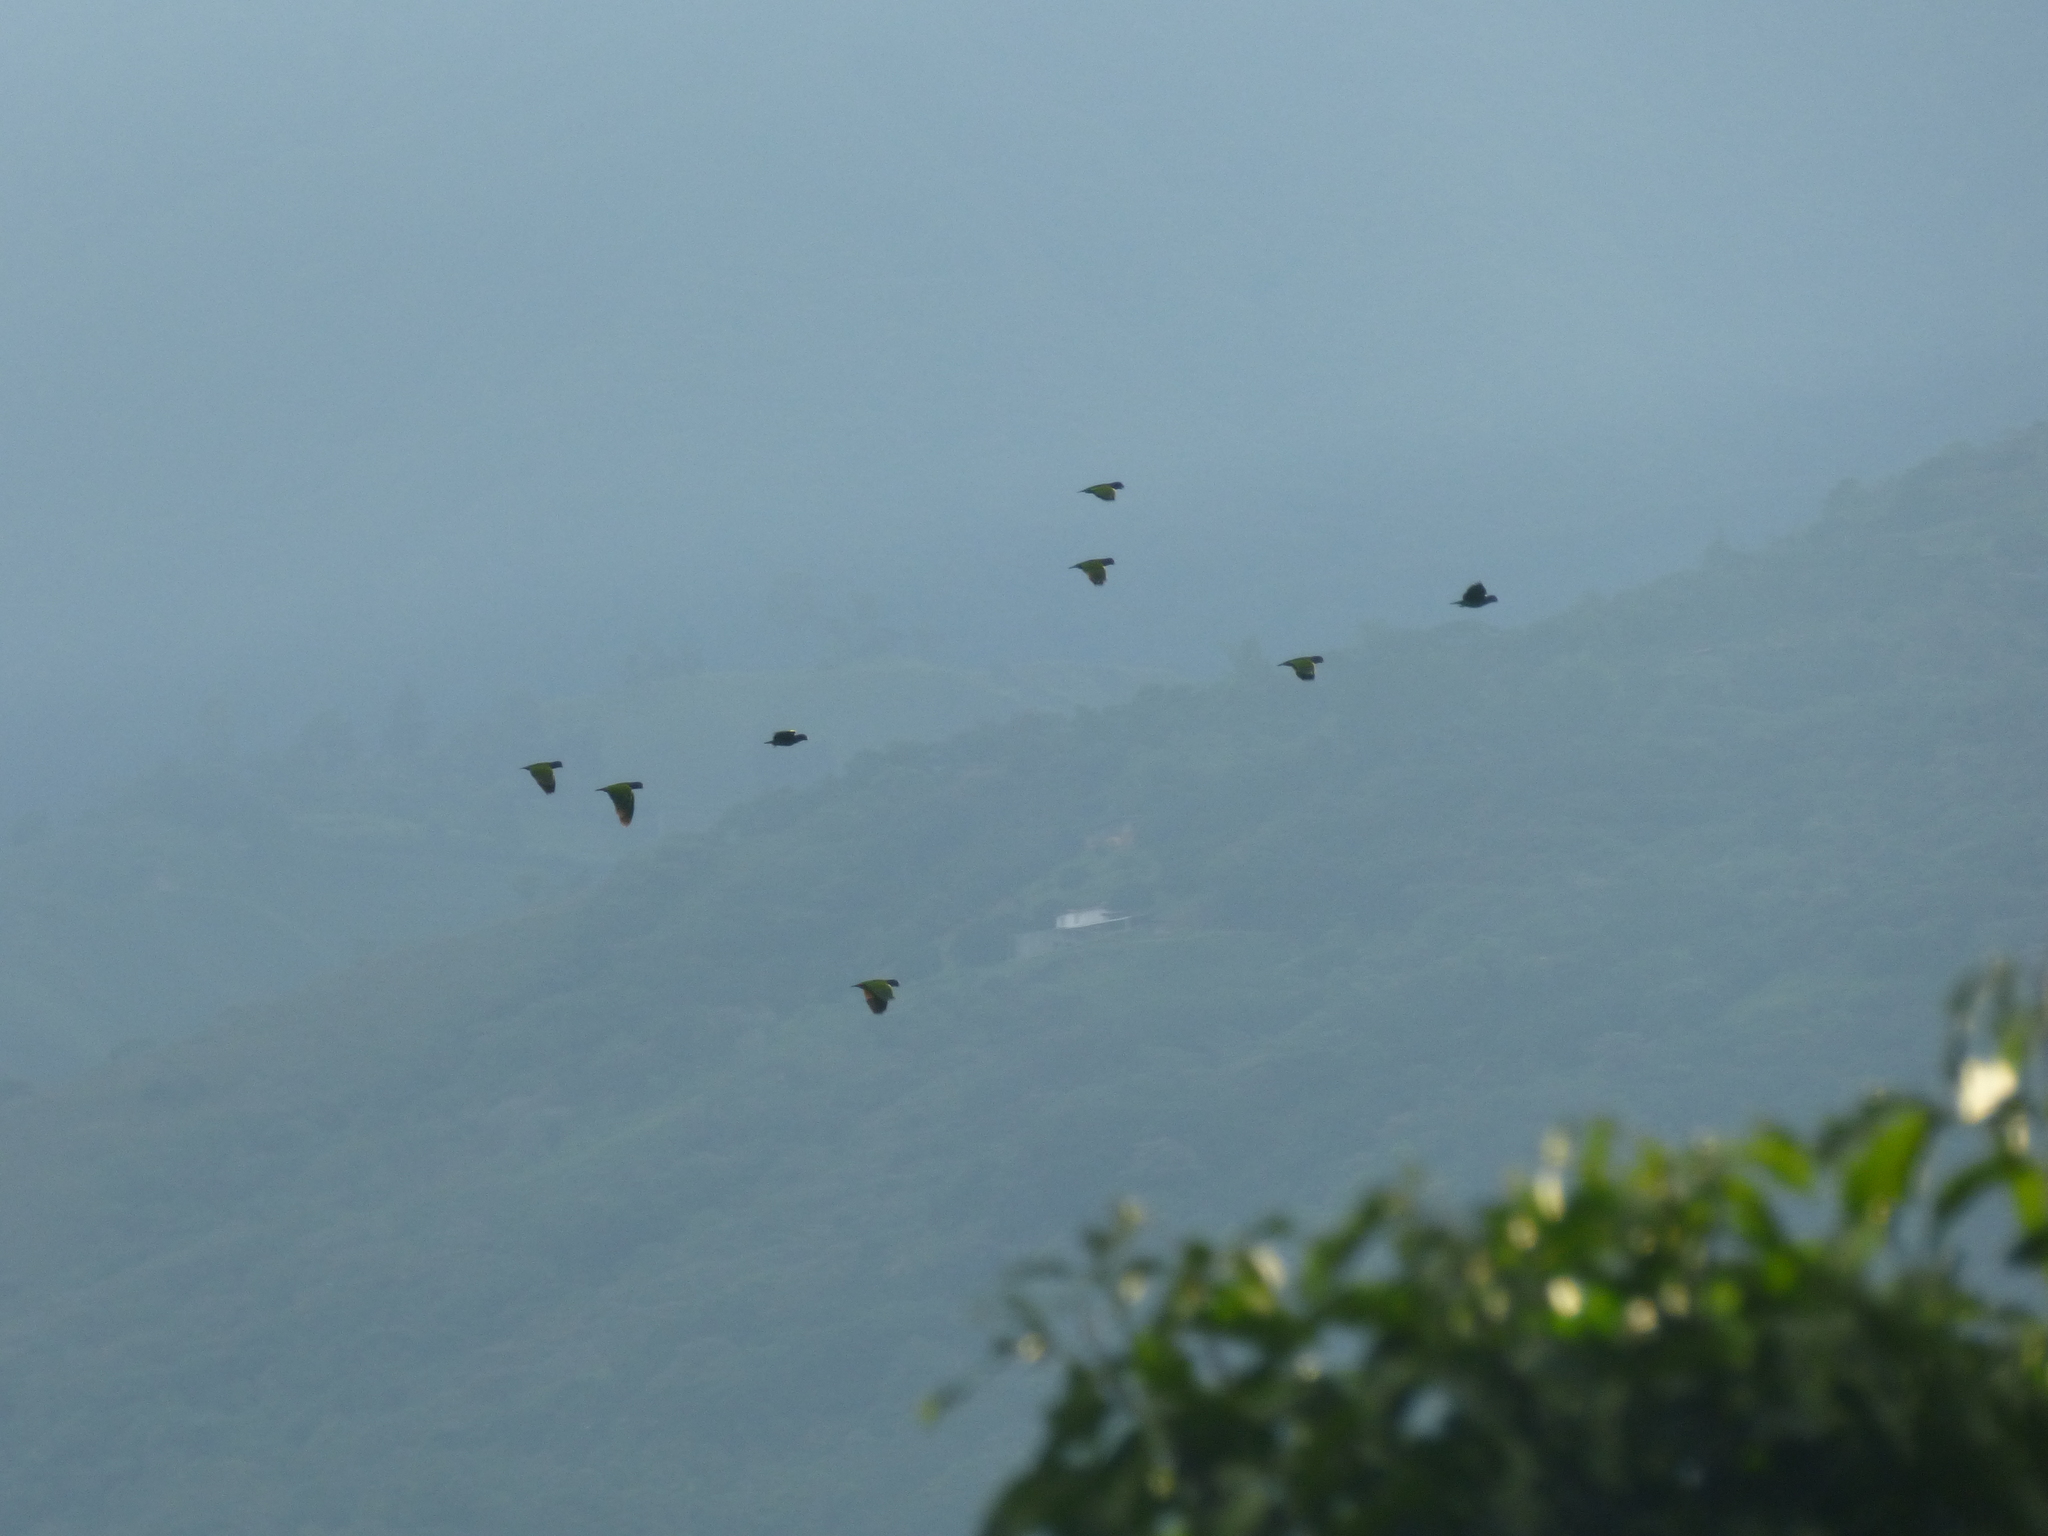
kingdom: Animalia
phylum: Chordata
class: Aves
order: Psittaciformes
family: Psittacidae
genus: Pionus
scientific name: Pionus menstruus
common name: Blue-headed parrot
